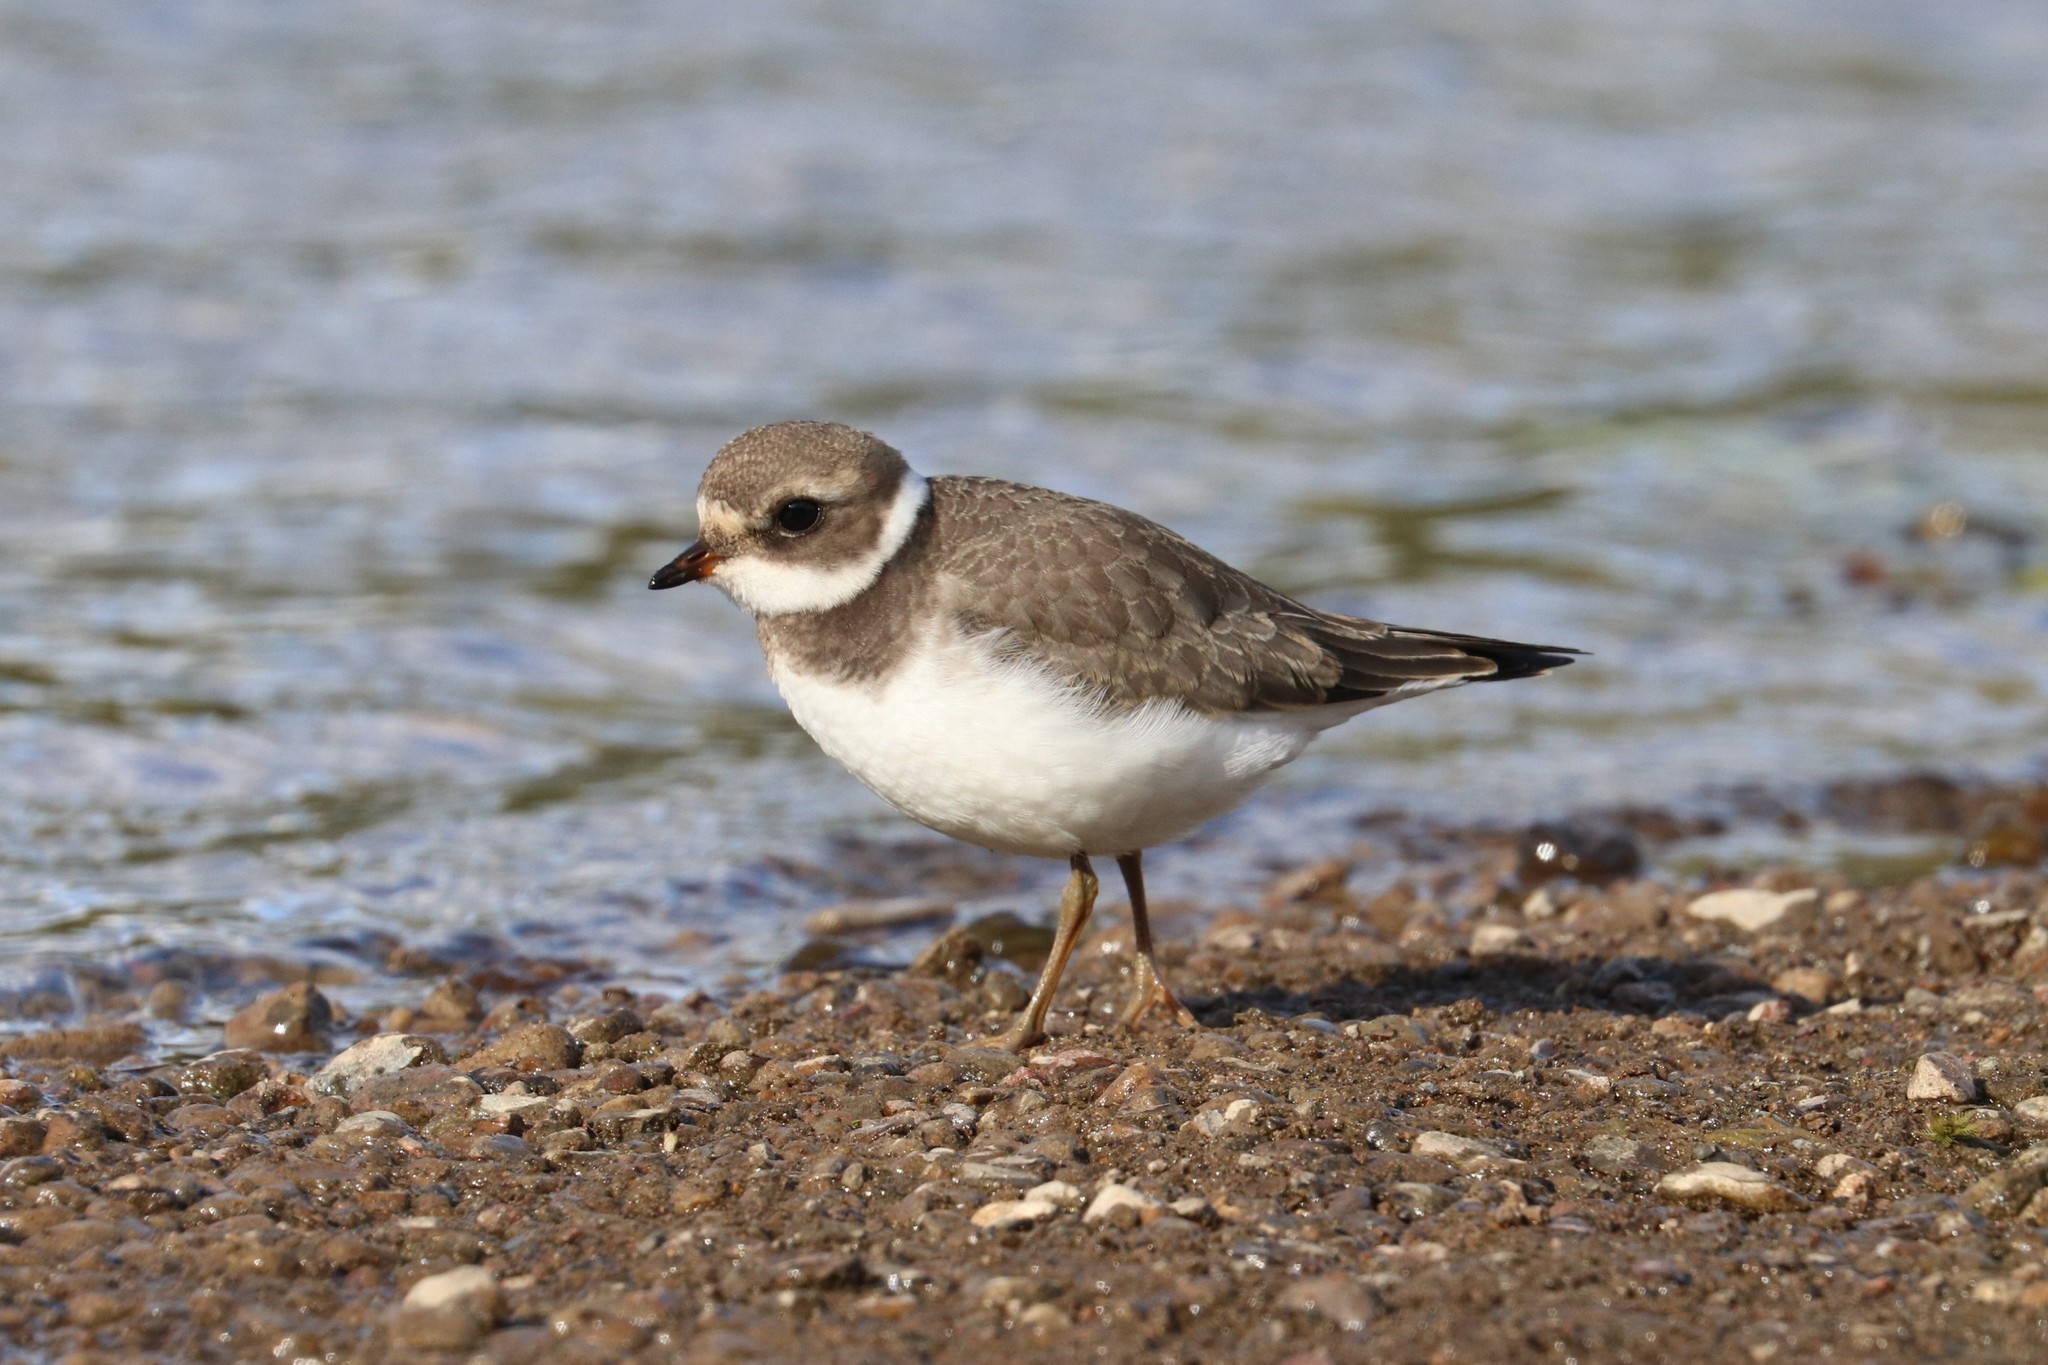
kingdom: Animalia
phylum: Chordata
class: Aves
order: Charadriiformes
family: Charadriidae
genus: Charadrius
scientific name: Charadrius hiaticula
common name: Common ringed plover
